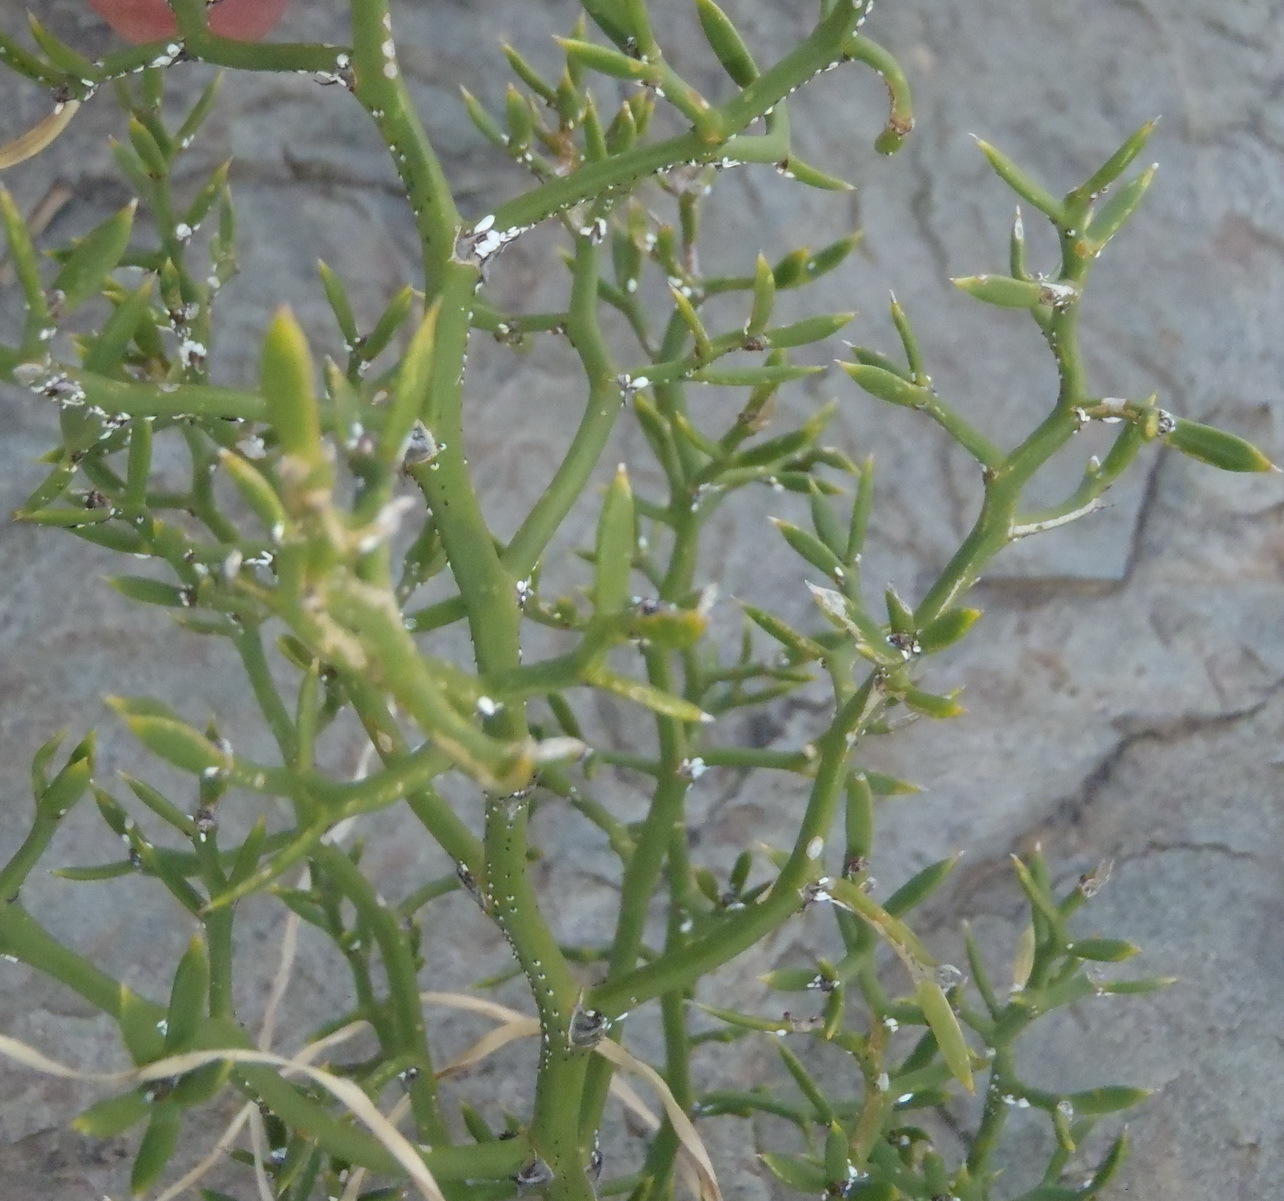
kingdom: Plantae
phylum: Tracheophyta
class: Liliopsida
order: Asparagales
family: Asparagaceae
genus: Asparagus
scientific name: Asparagus striatus
